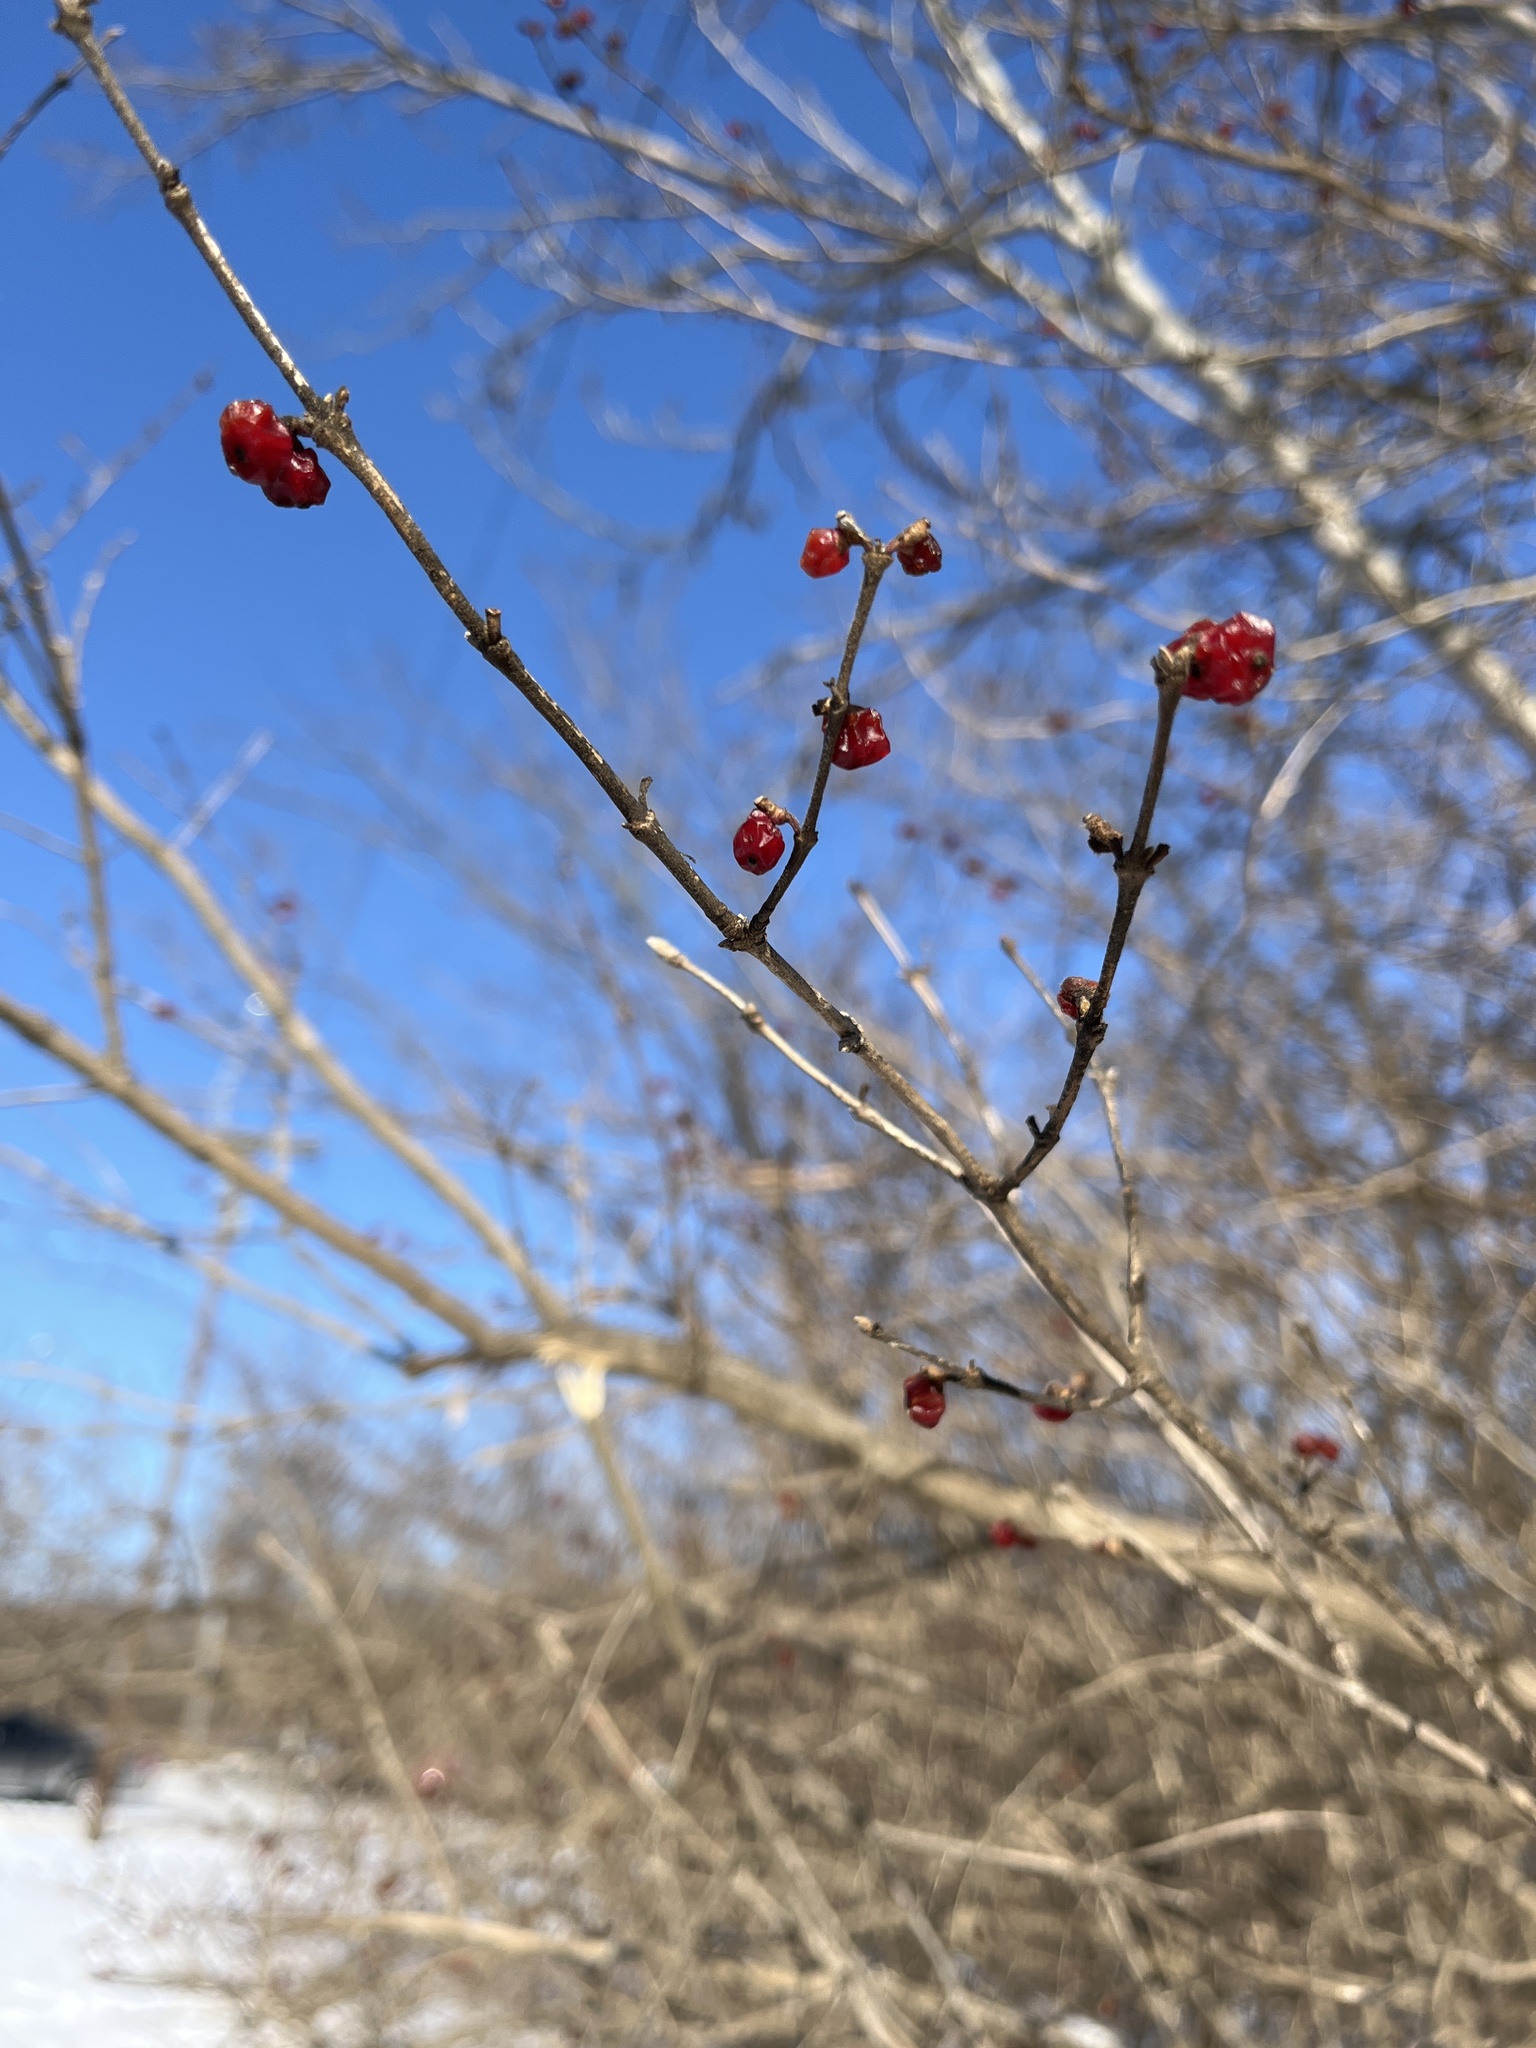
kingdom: Plantae
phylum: Tracheophyta
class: Magnoliopsida
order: Dipsacales
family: Caprifoliaceae
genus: Lonicera
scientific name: Lonicera maackii
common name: Amur honeysuckle
